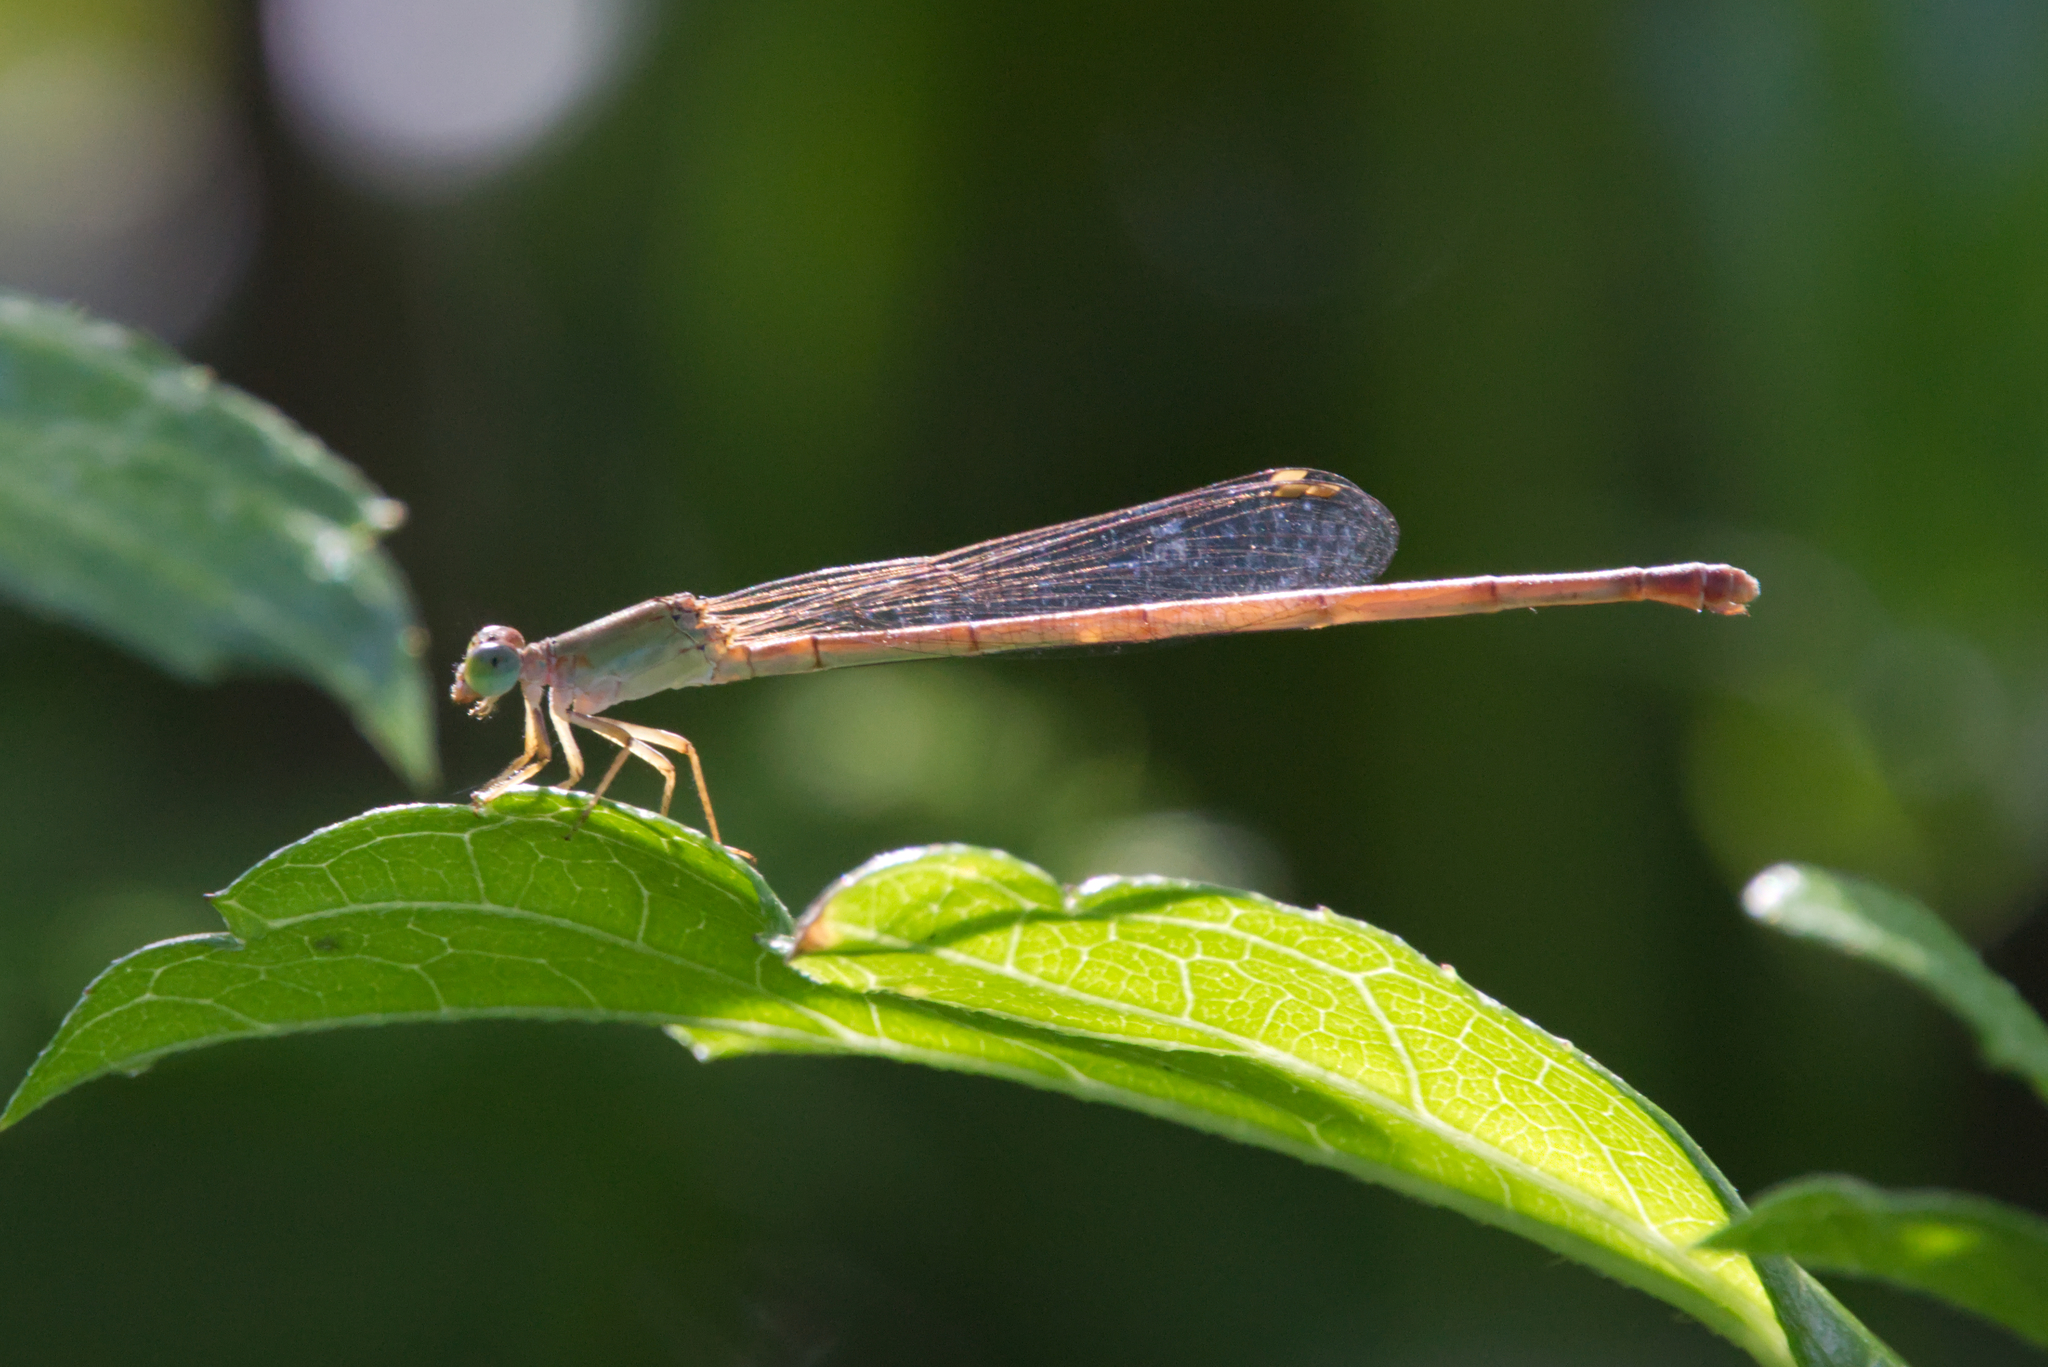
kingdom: Animalia
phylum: Arthropoda
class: Insecta
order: Odonata
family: Coenagrionidae
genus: Ceriagrion
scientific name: Ceriagrion aeruginosum
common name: Redtail
